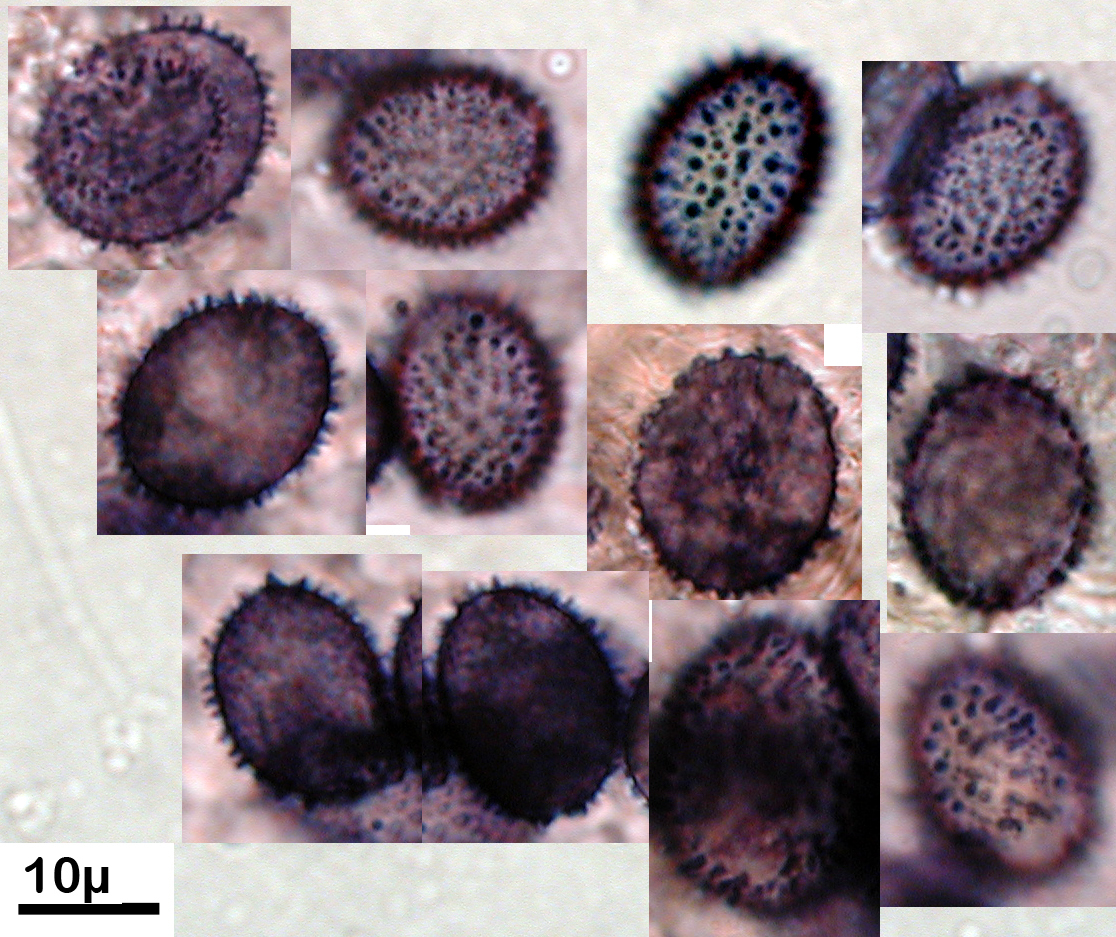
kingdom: Fungi
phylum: Basidiomycota
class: Agaricomycetes
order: Russulales
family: Stereaceae
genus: Aleurodiscus
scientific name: Aleurodiscus coronatus
